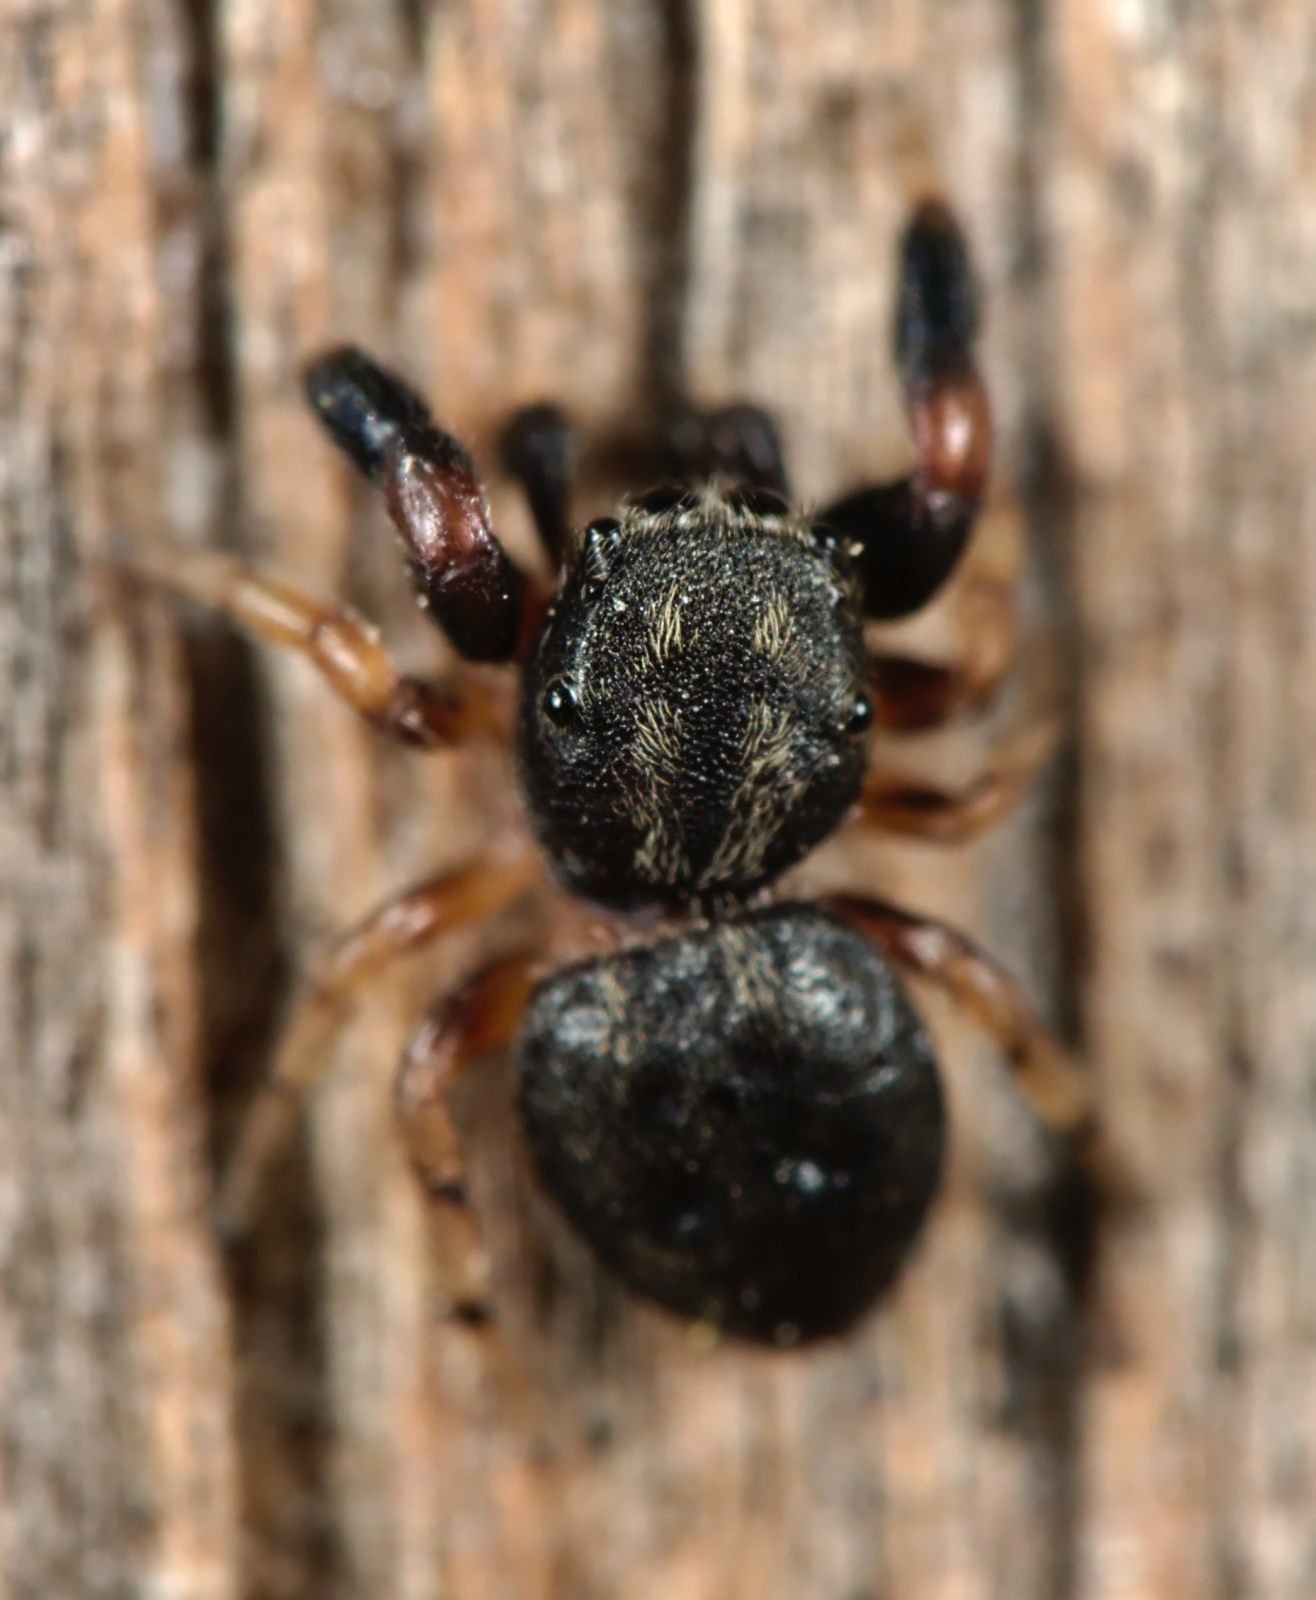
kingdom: Animalia
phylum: Arthropoda
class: Arachnida
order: Araneae
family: Salticidae
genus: Sibianor
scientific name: Sibianor aurocinctus
